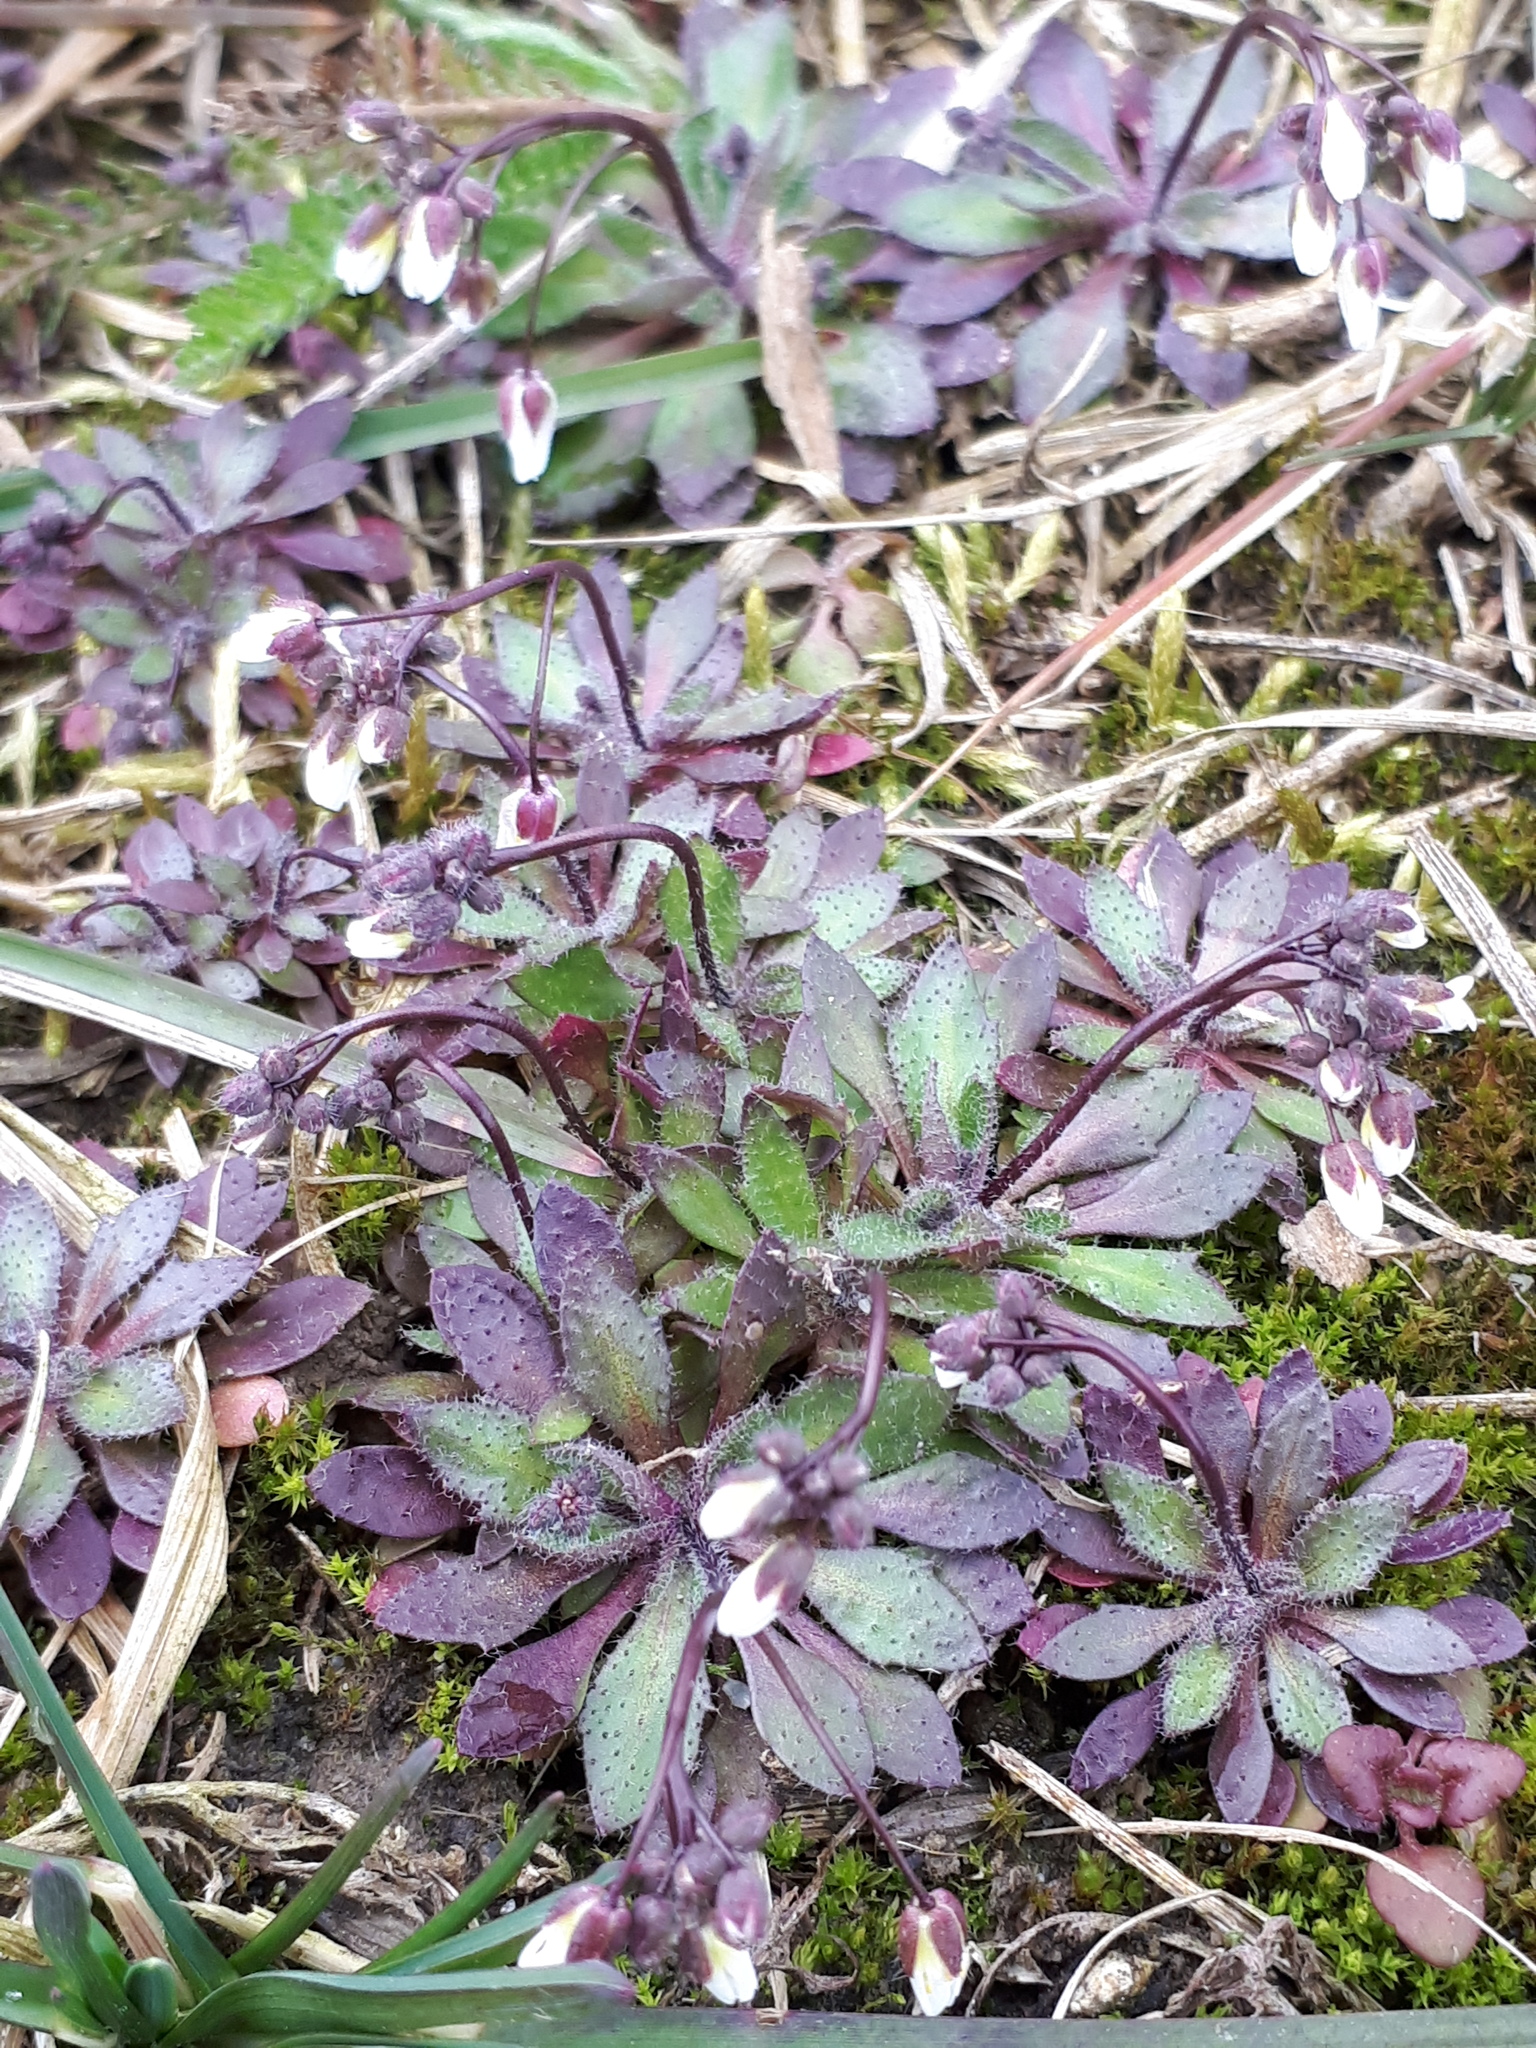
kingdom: Plantae
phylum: Tracheophyta
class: Magnoliopsida
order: Brassicales
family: Brassicaceae
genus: Draba
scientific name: Draba verna
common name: Spring draba
